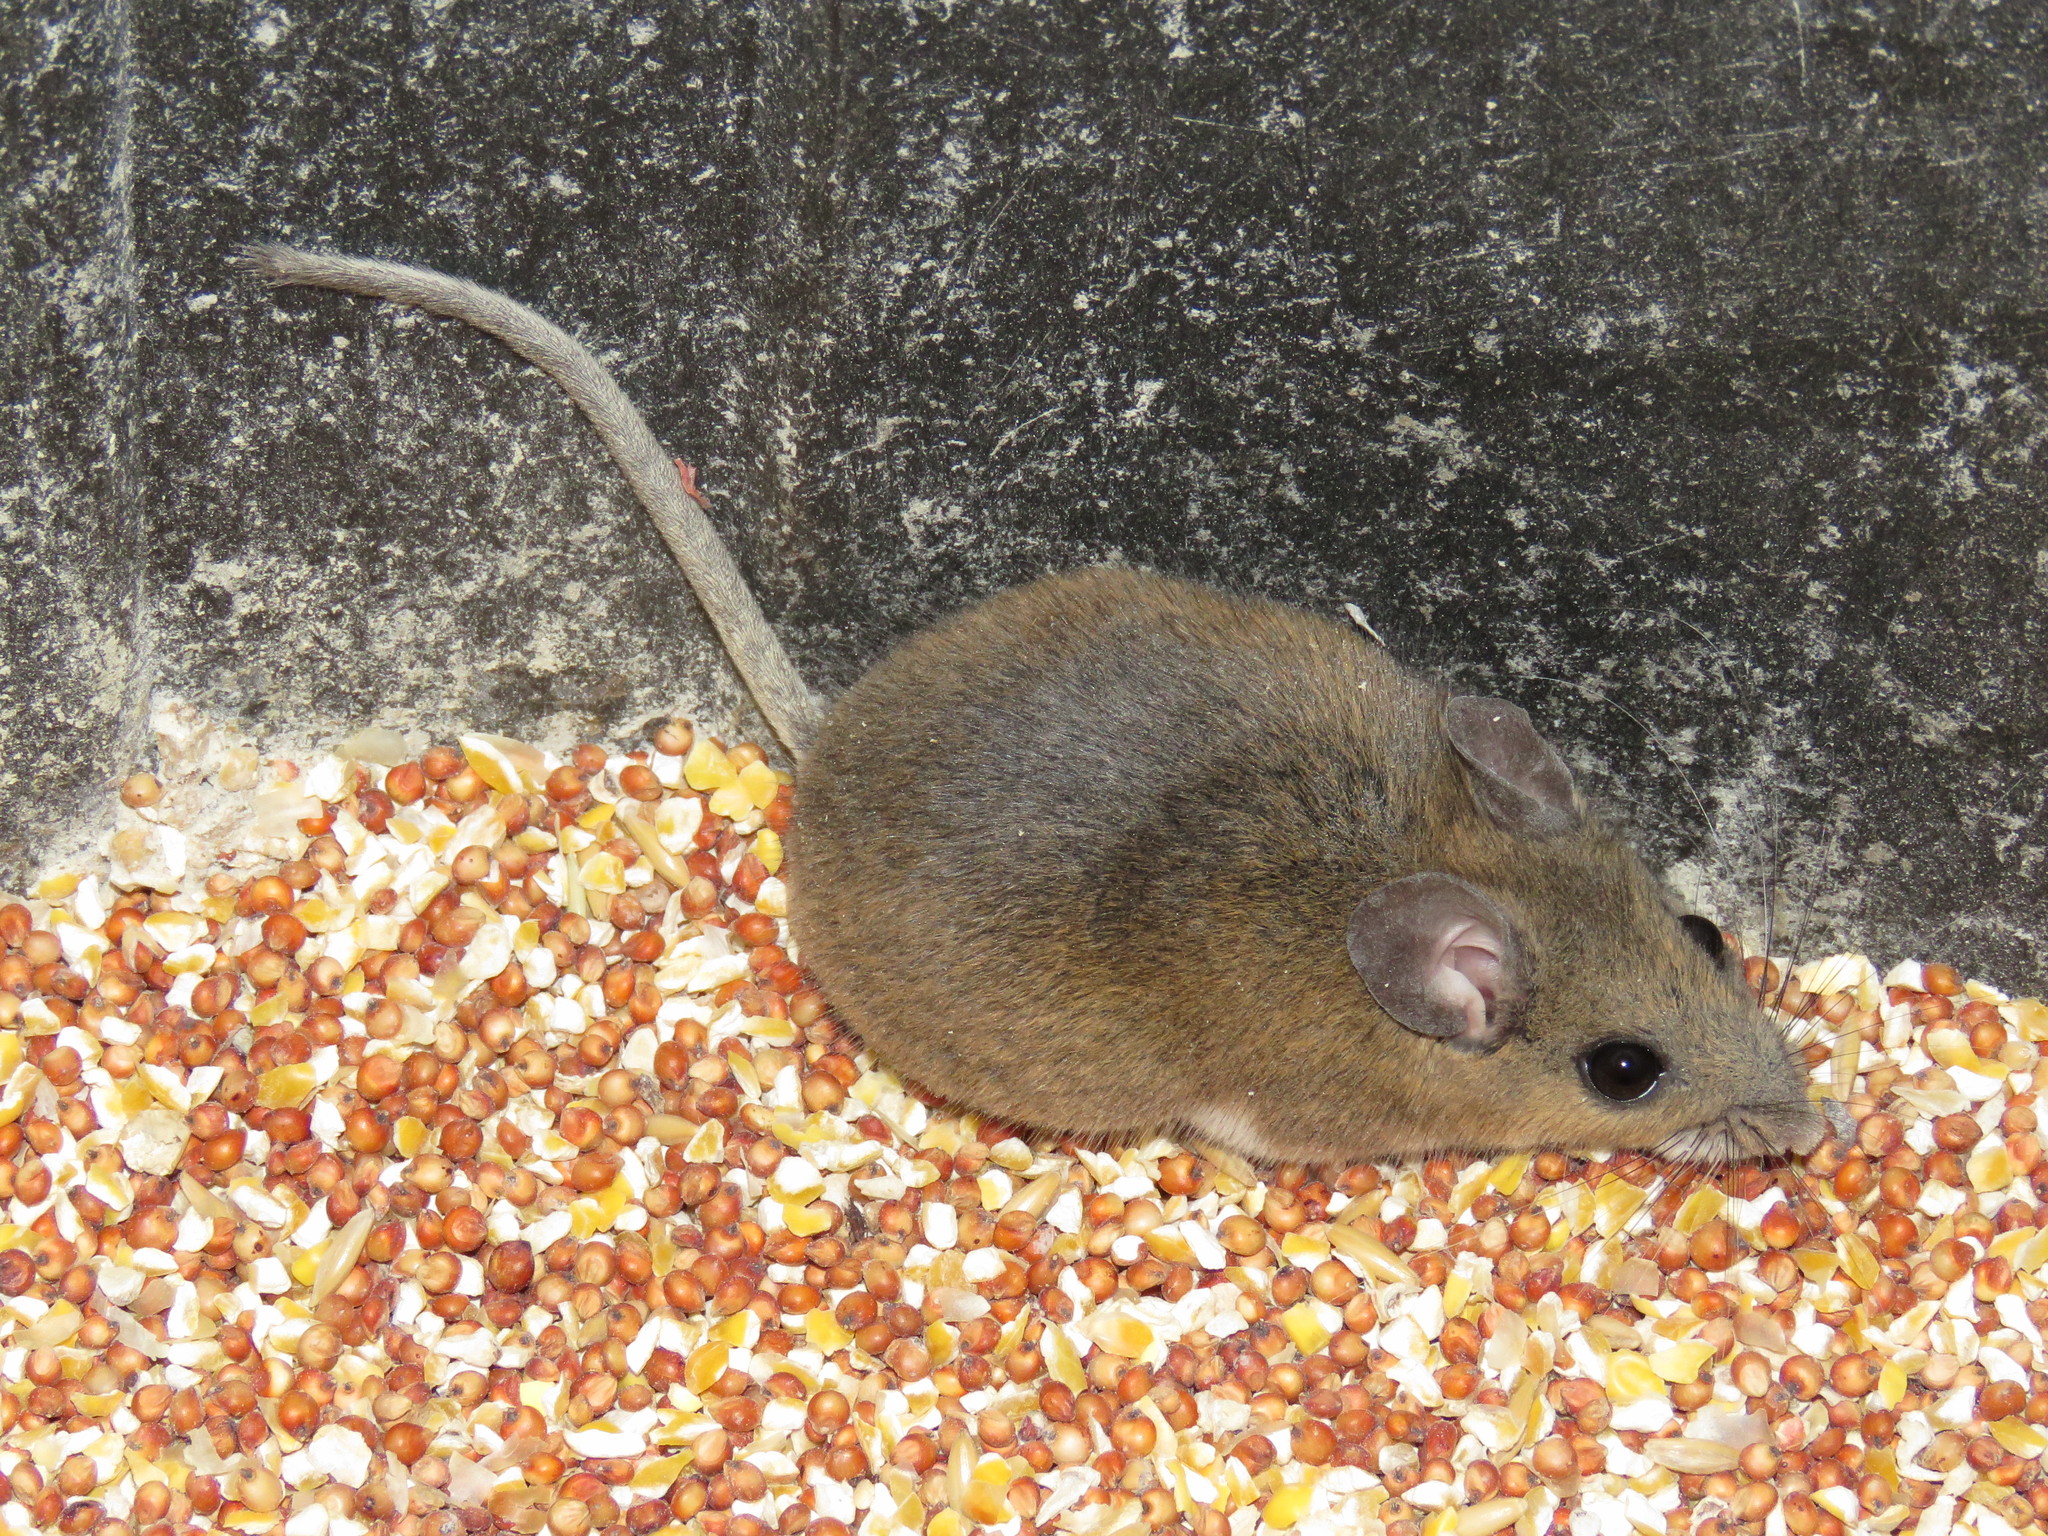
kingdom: Animalia
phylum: Chordata
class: Mammalia
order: Rodentia
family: Cricetidae
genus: Peromyscus
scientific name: Peromyscus gossypinus
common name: Cotton deermouse
